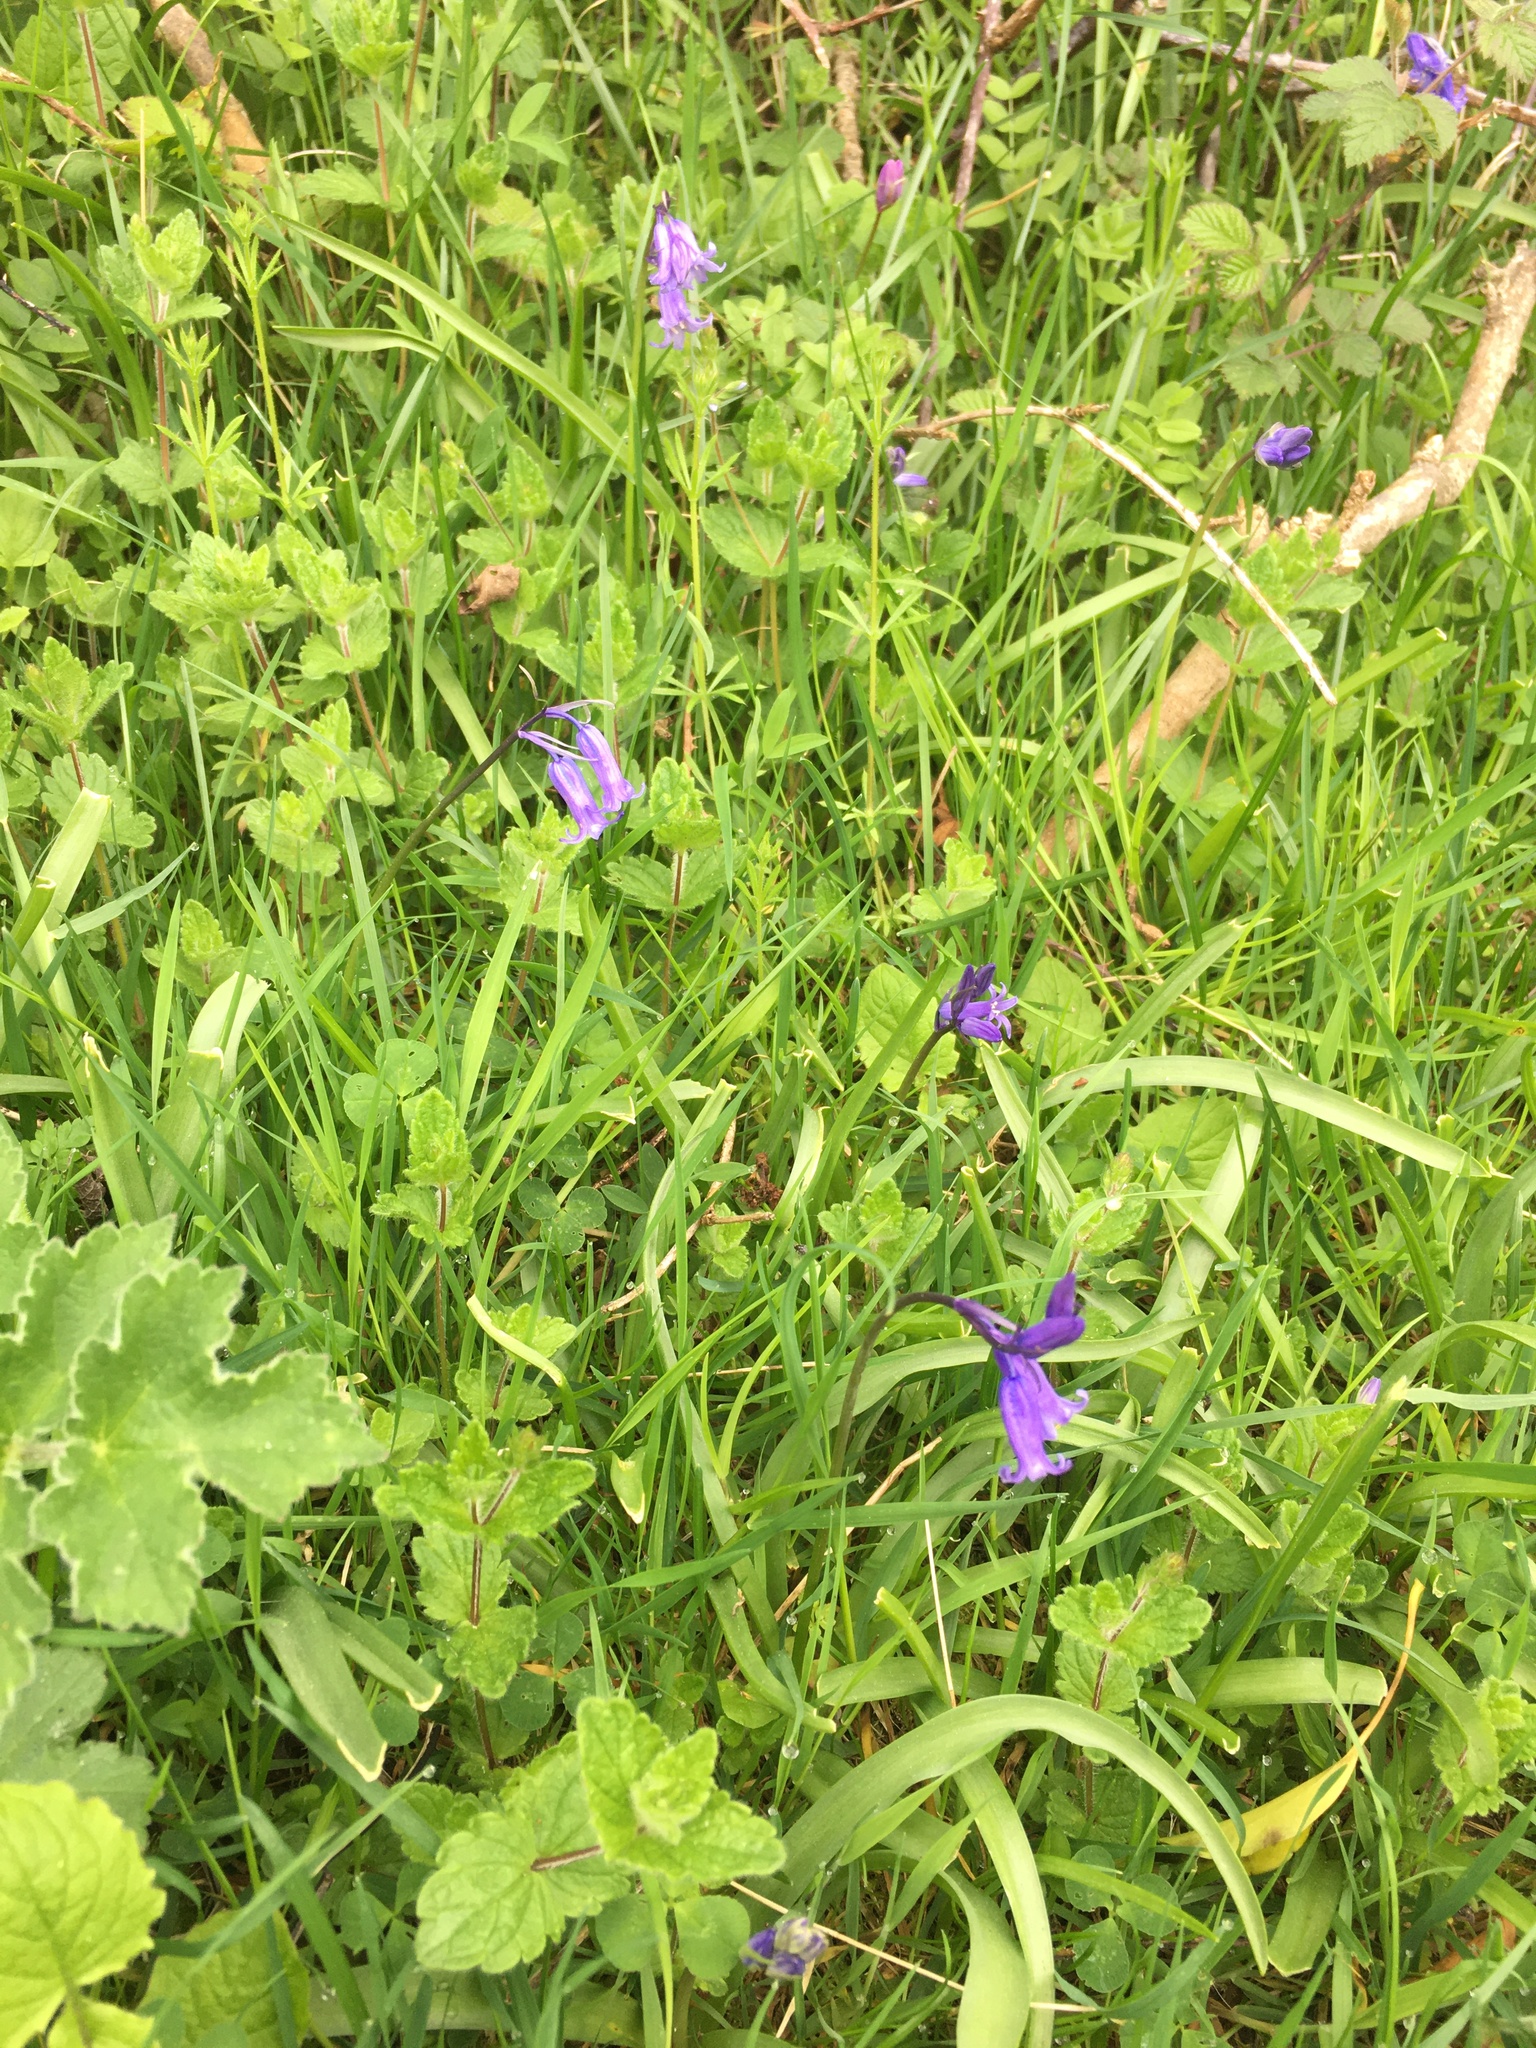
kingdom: Plantae
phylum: Tracheophyta
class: Liliopsida
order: Asparagales
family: Asparagaceae
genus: Hyacinthoides
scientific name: Hyacinthoides non-scripta
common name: Bluebell
